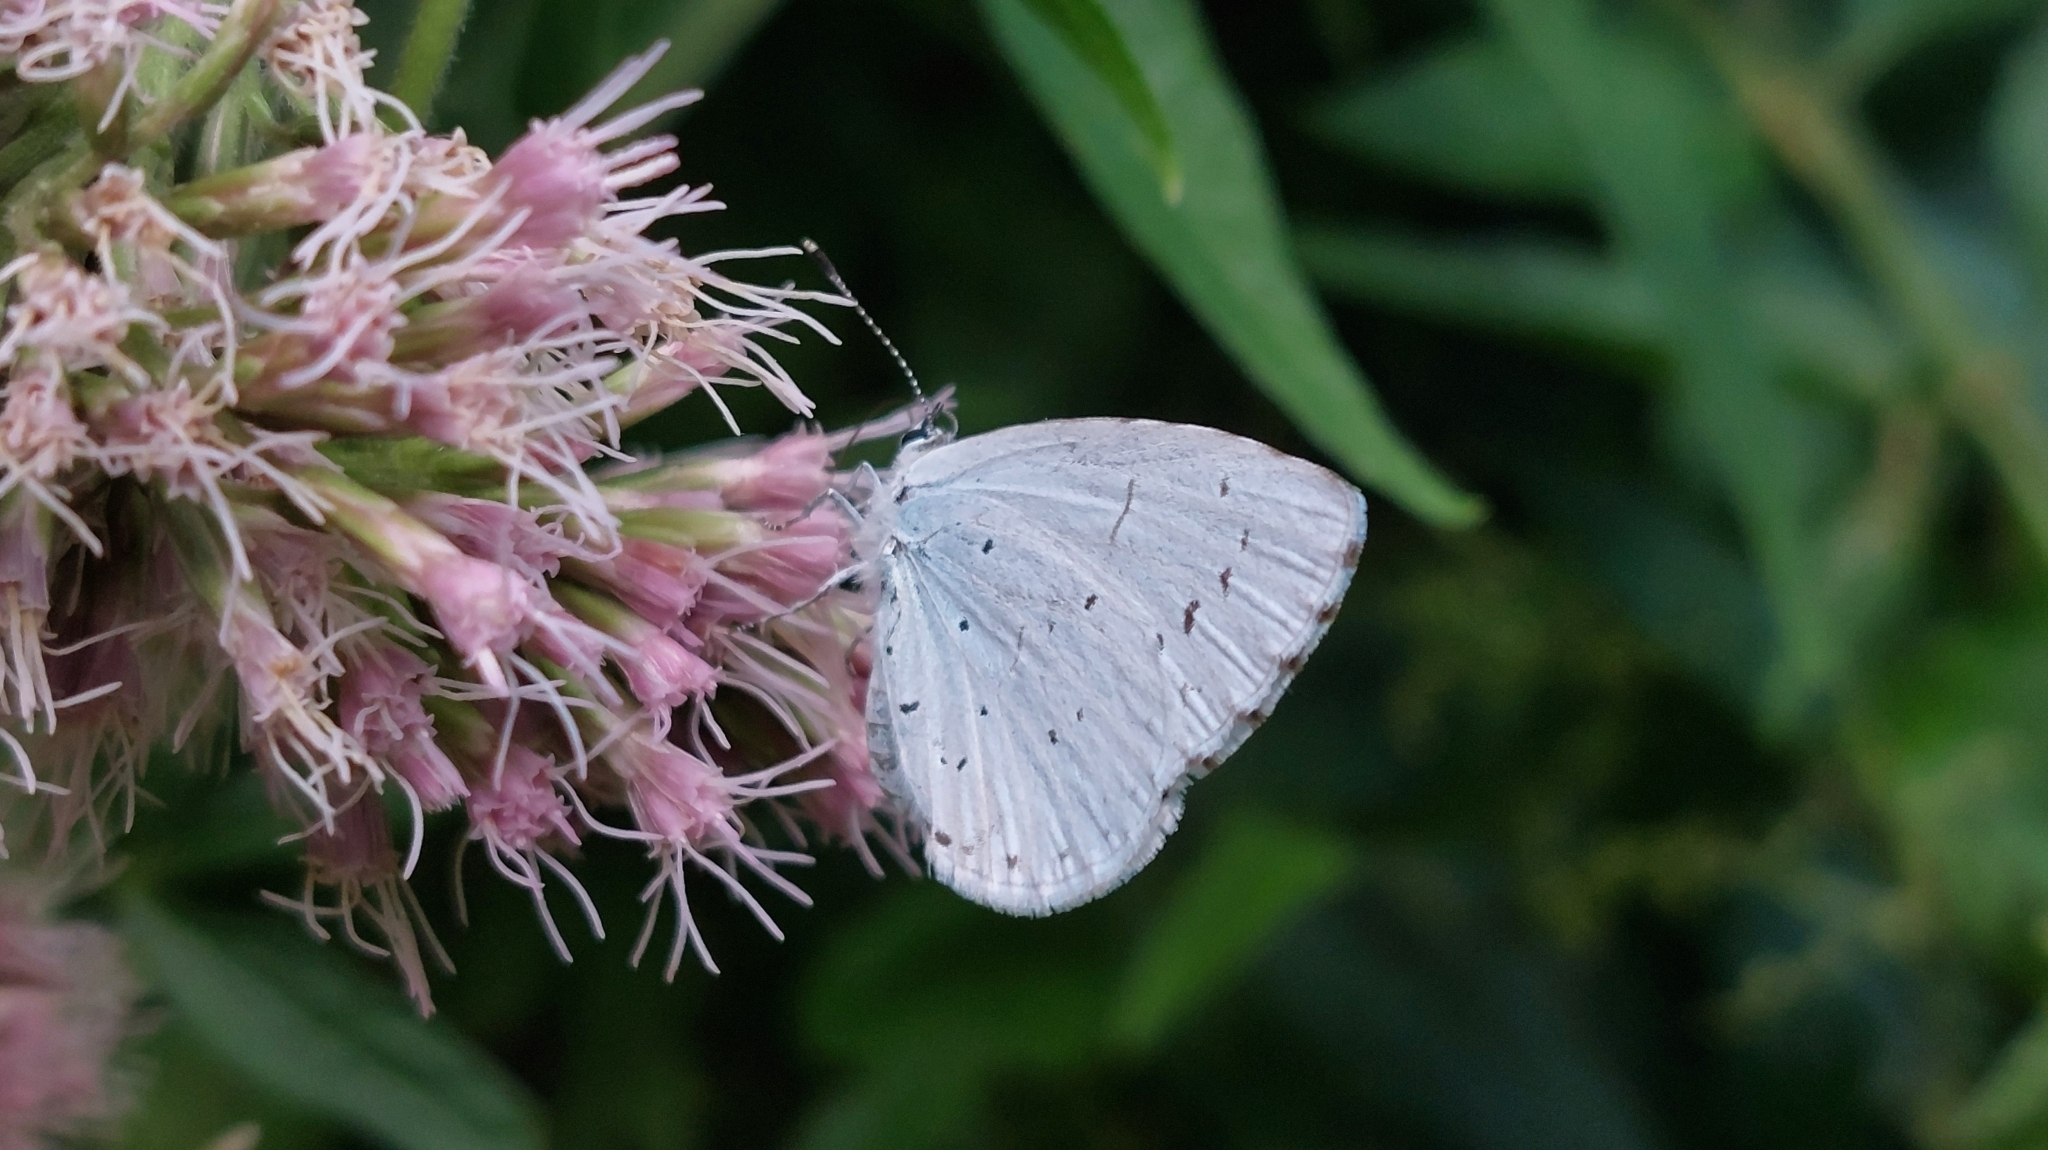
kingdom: Animalia
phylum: Arthropoda
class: Insecta
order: Lepidoptera
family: Lycaenidae
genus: Celastrina
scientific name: Celastrina argiolus
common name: Holly blue
